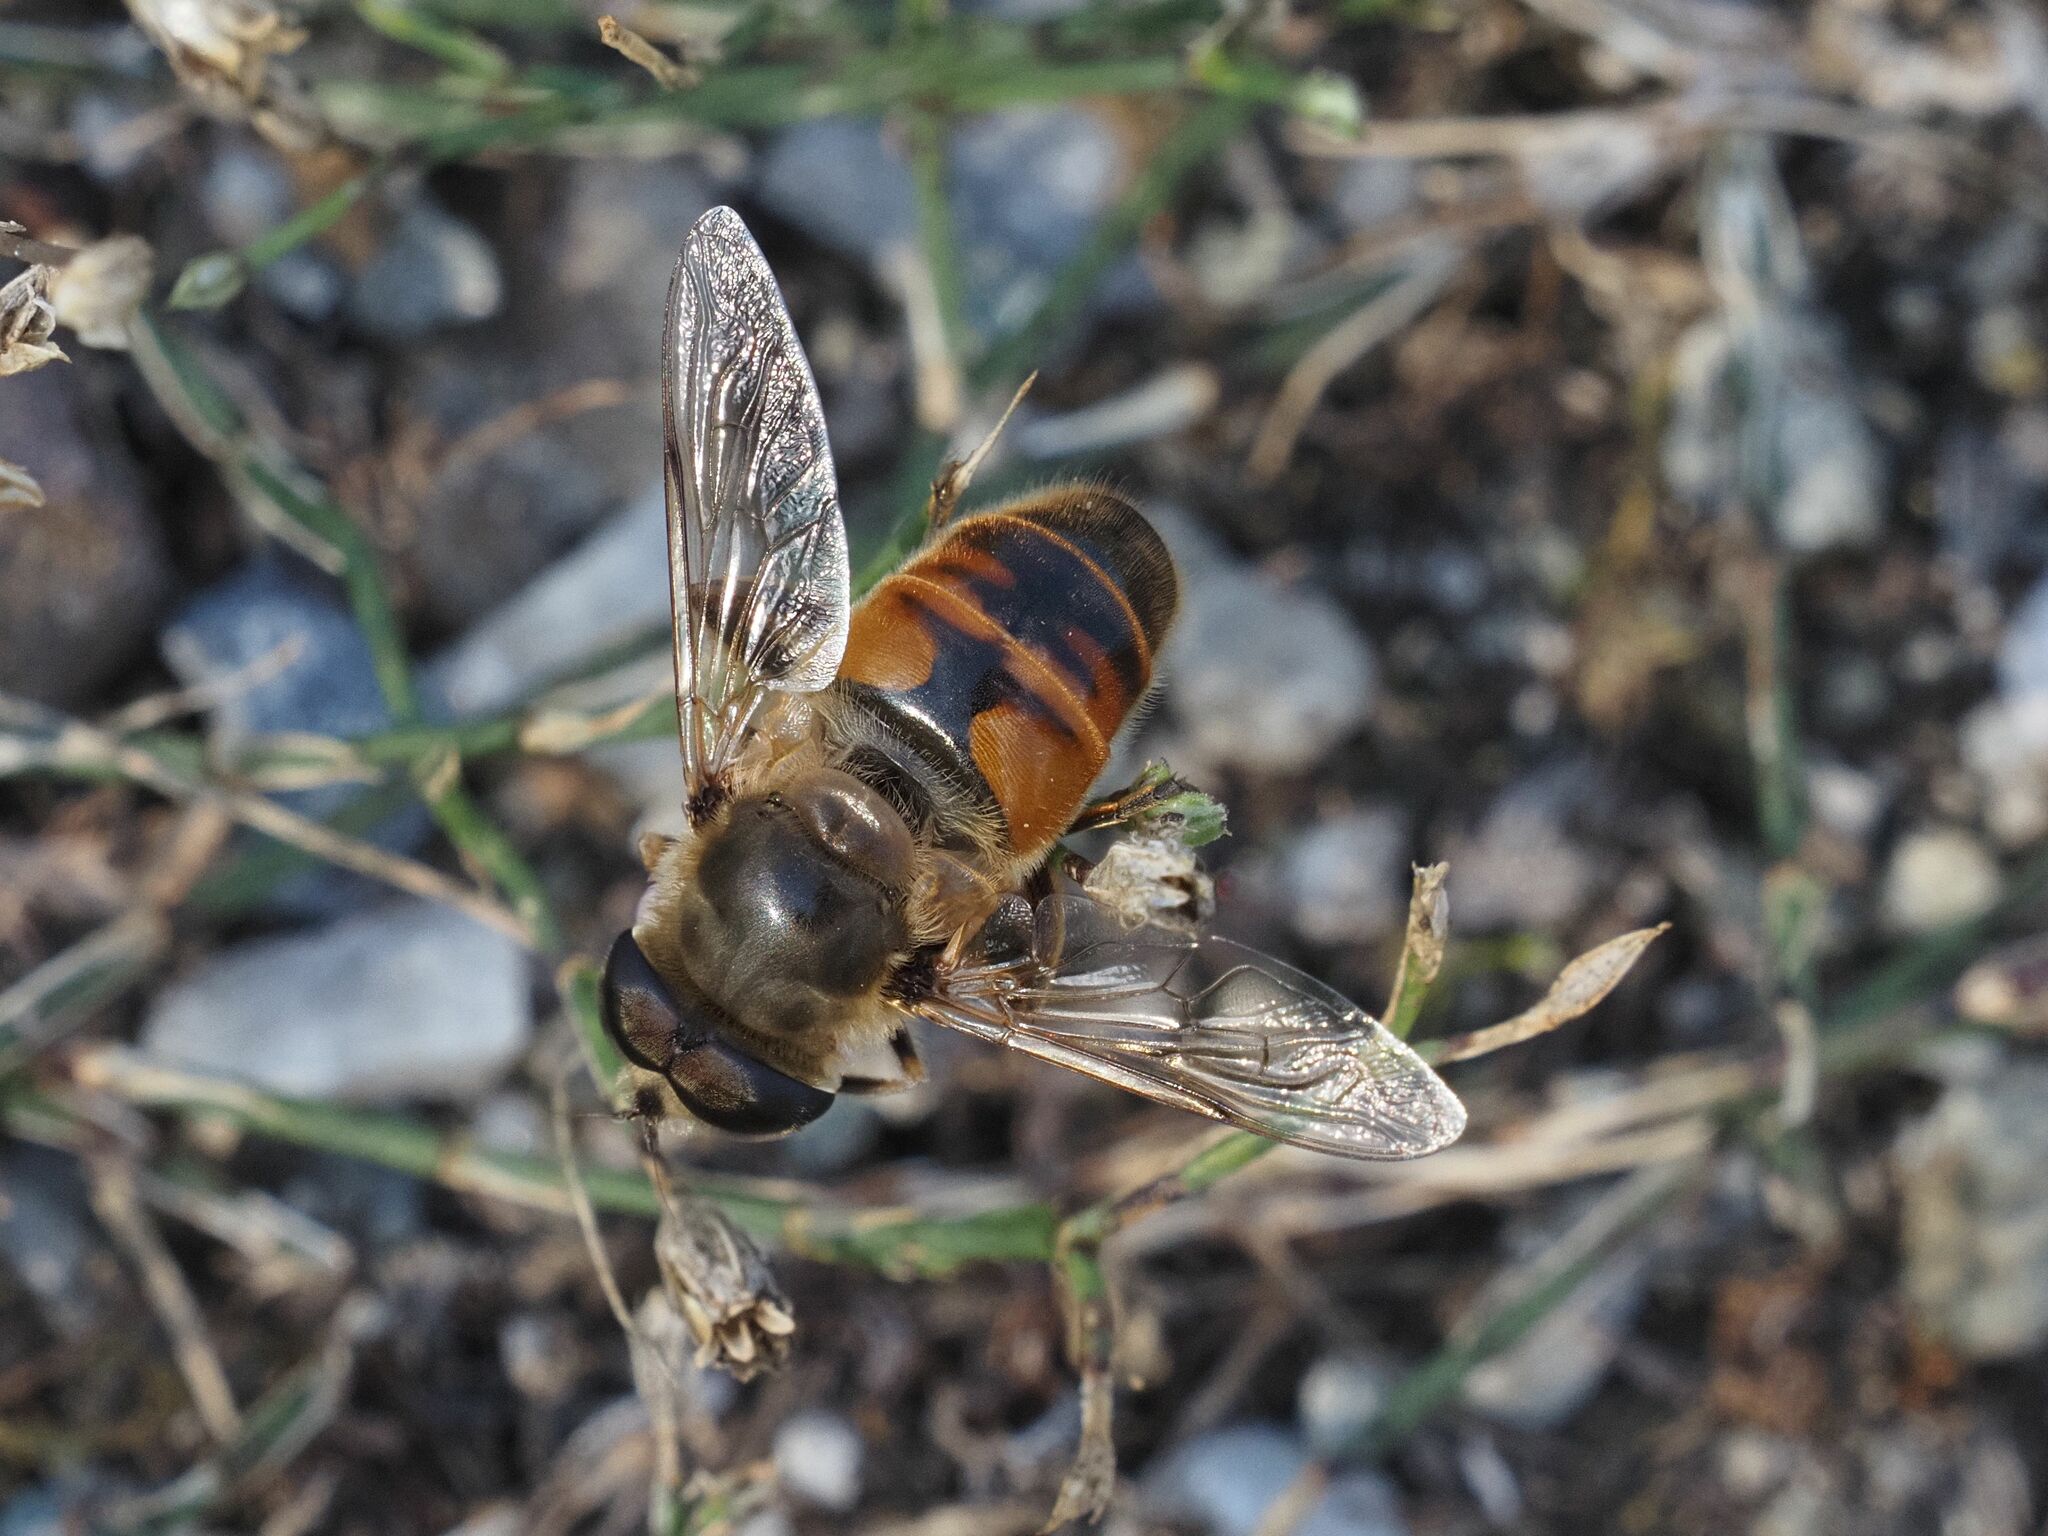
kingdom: Animalia
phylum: Arthropoda
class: Insecta
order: Diptera
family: Syrphidae
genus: Eristalis
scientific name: Eristalis tenax
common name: Drone fly
